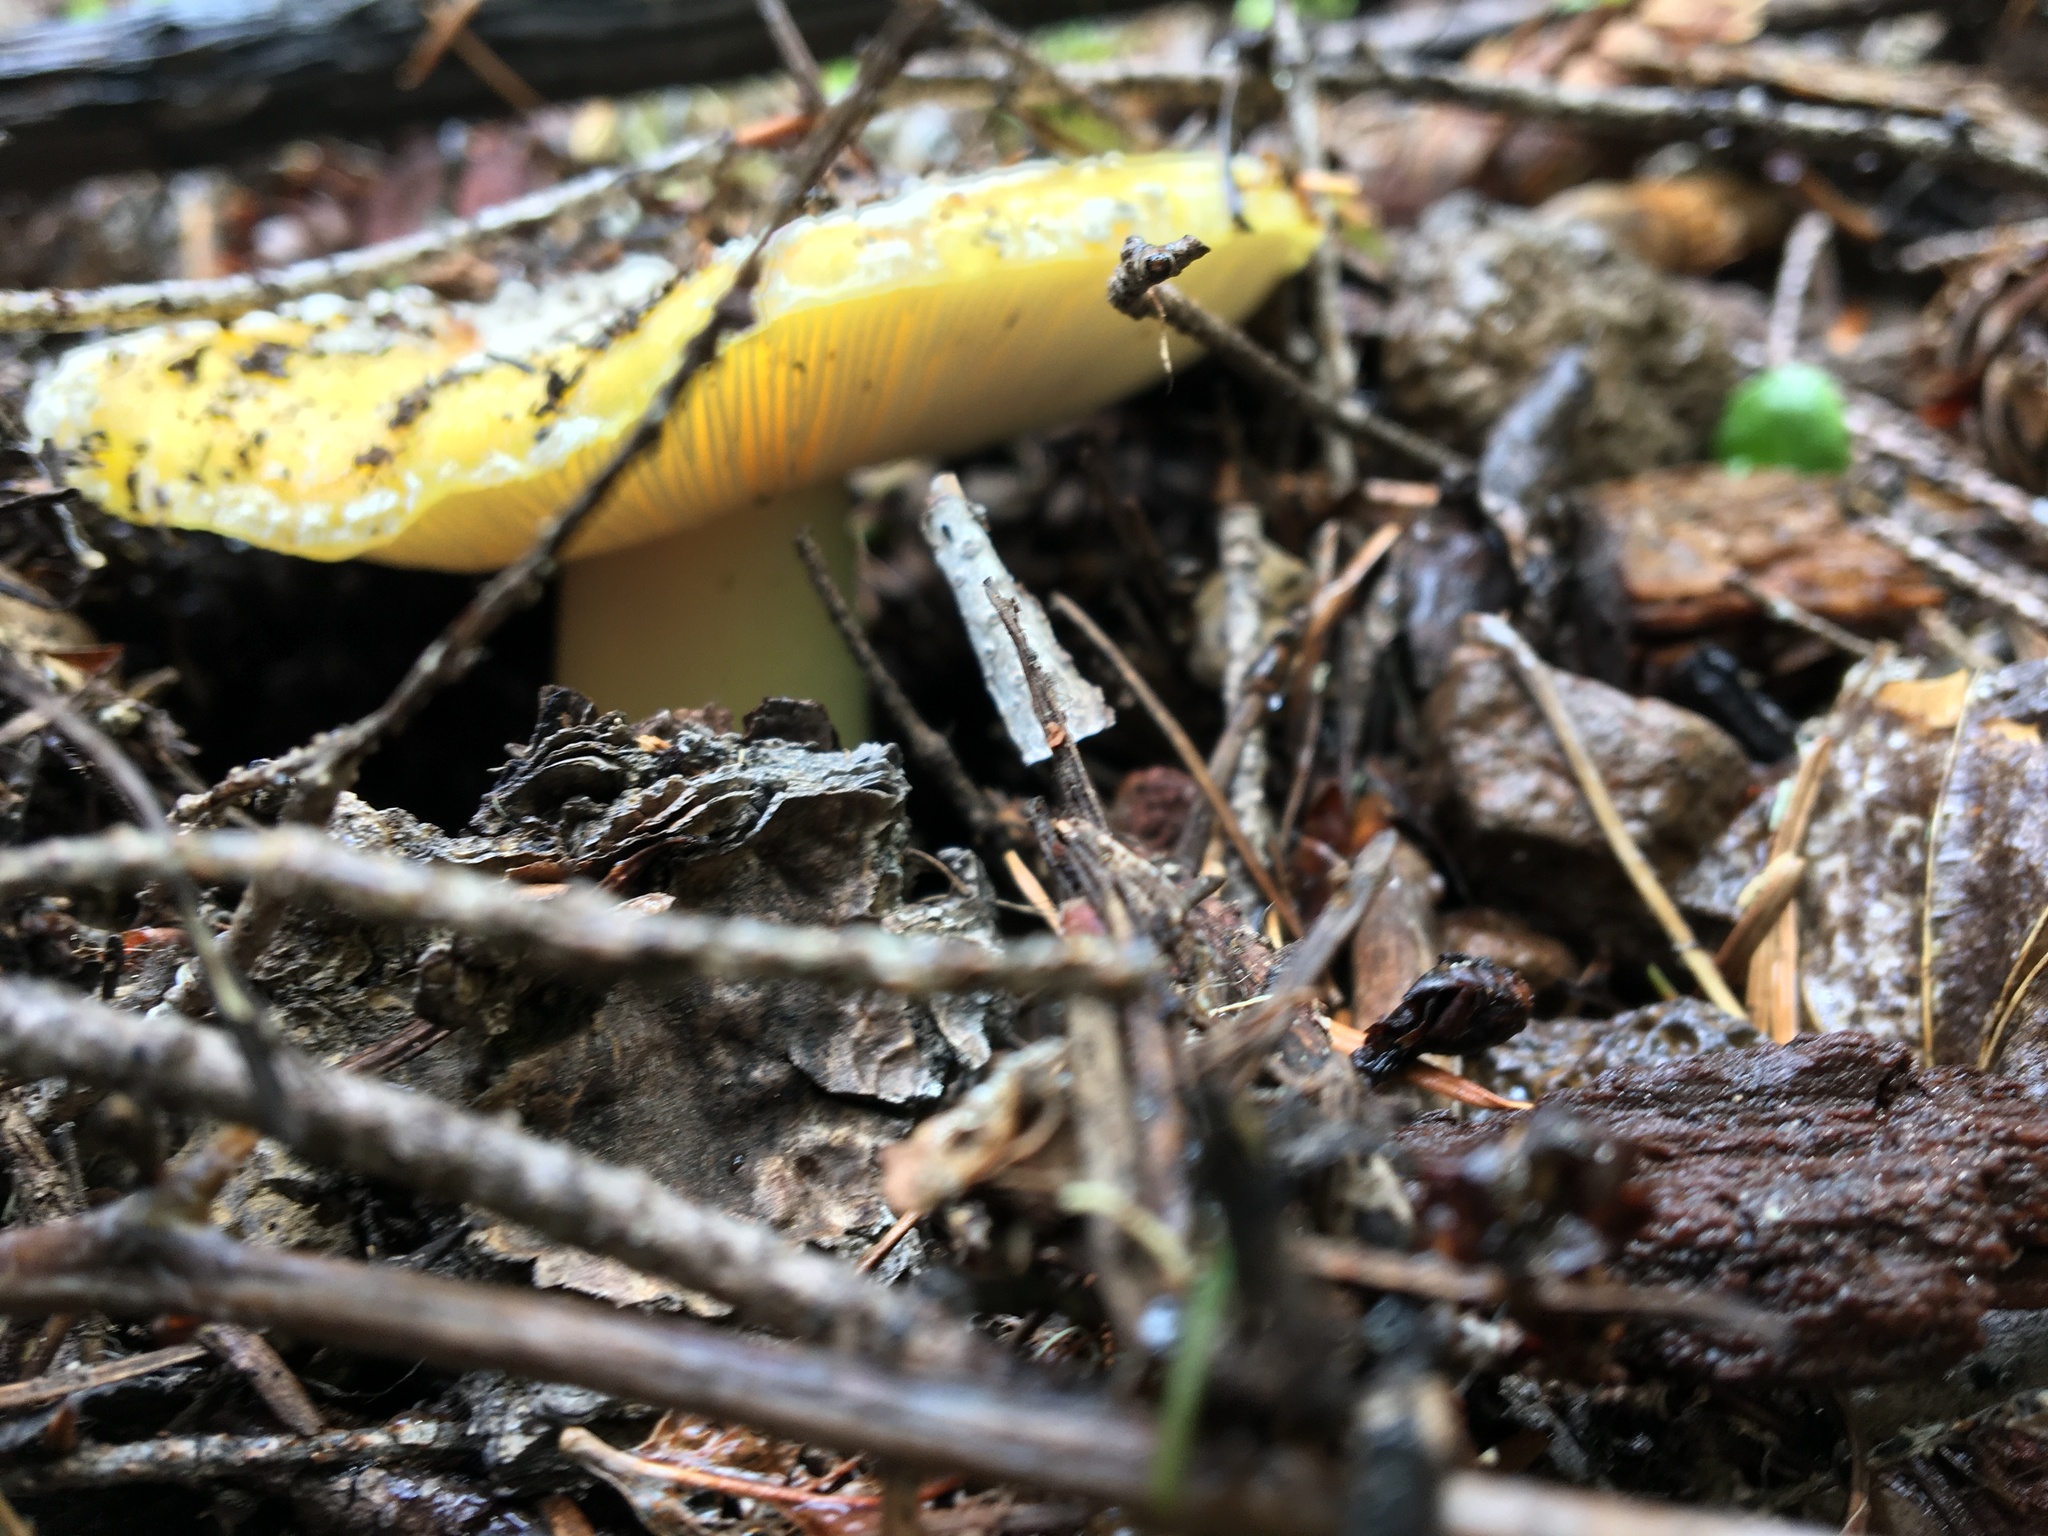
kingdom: Fungi
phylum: Basidiomycota
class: Agaricomycetes
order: Agaricales
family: Amanitaceae
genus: Amanita
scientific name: Amanita aprica
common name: Sunshine amanita
